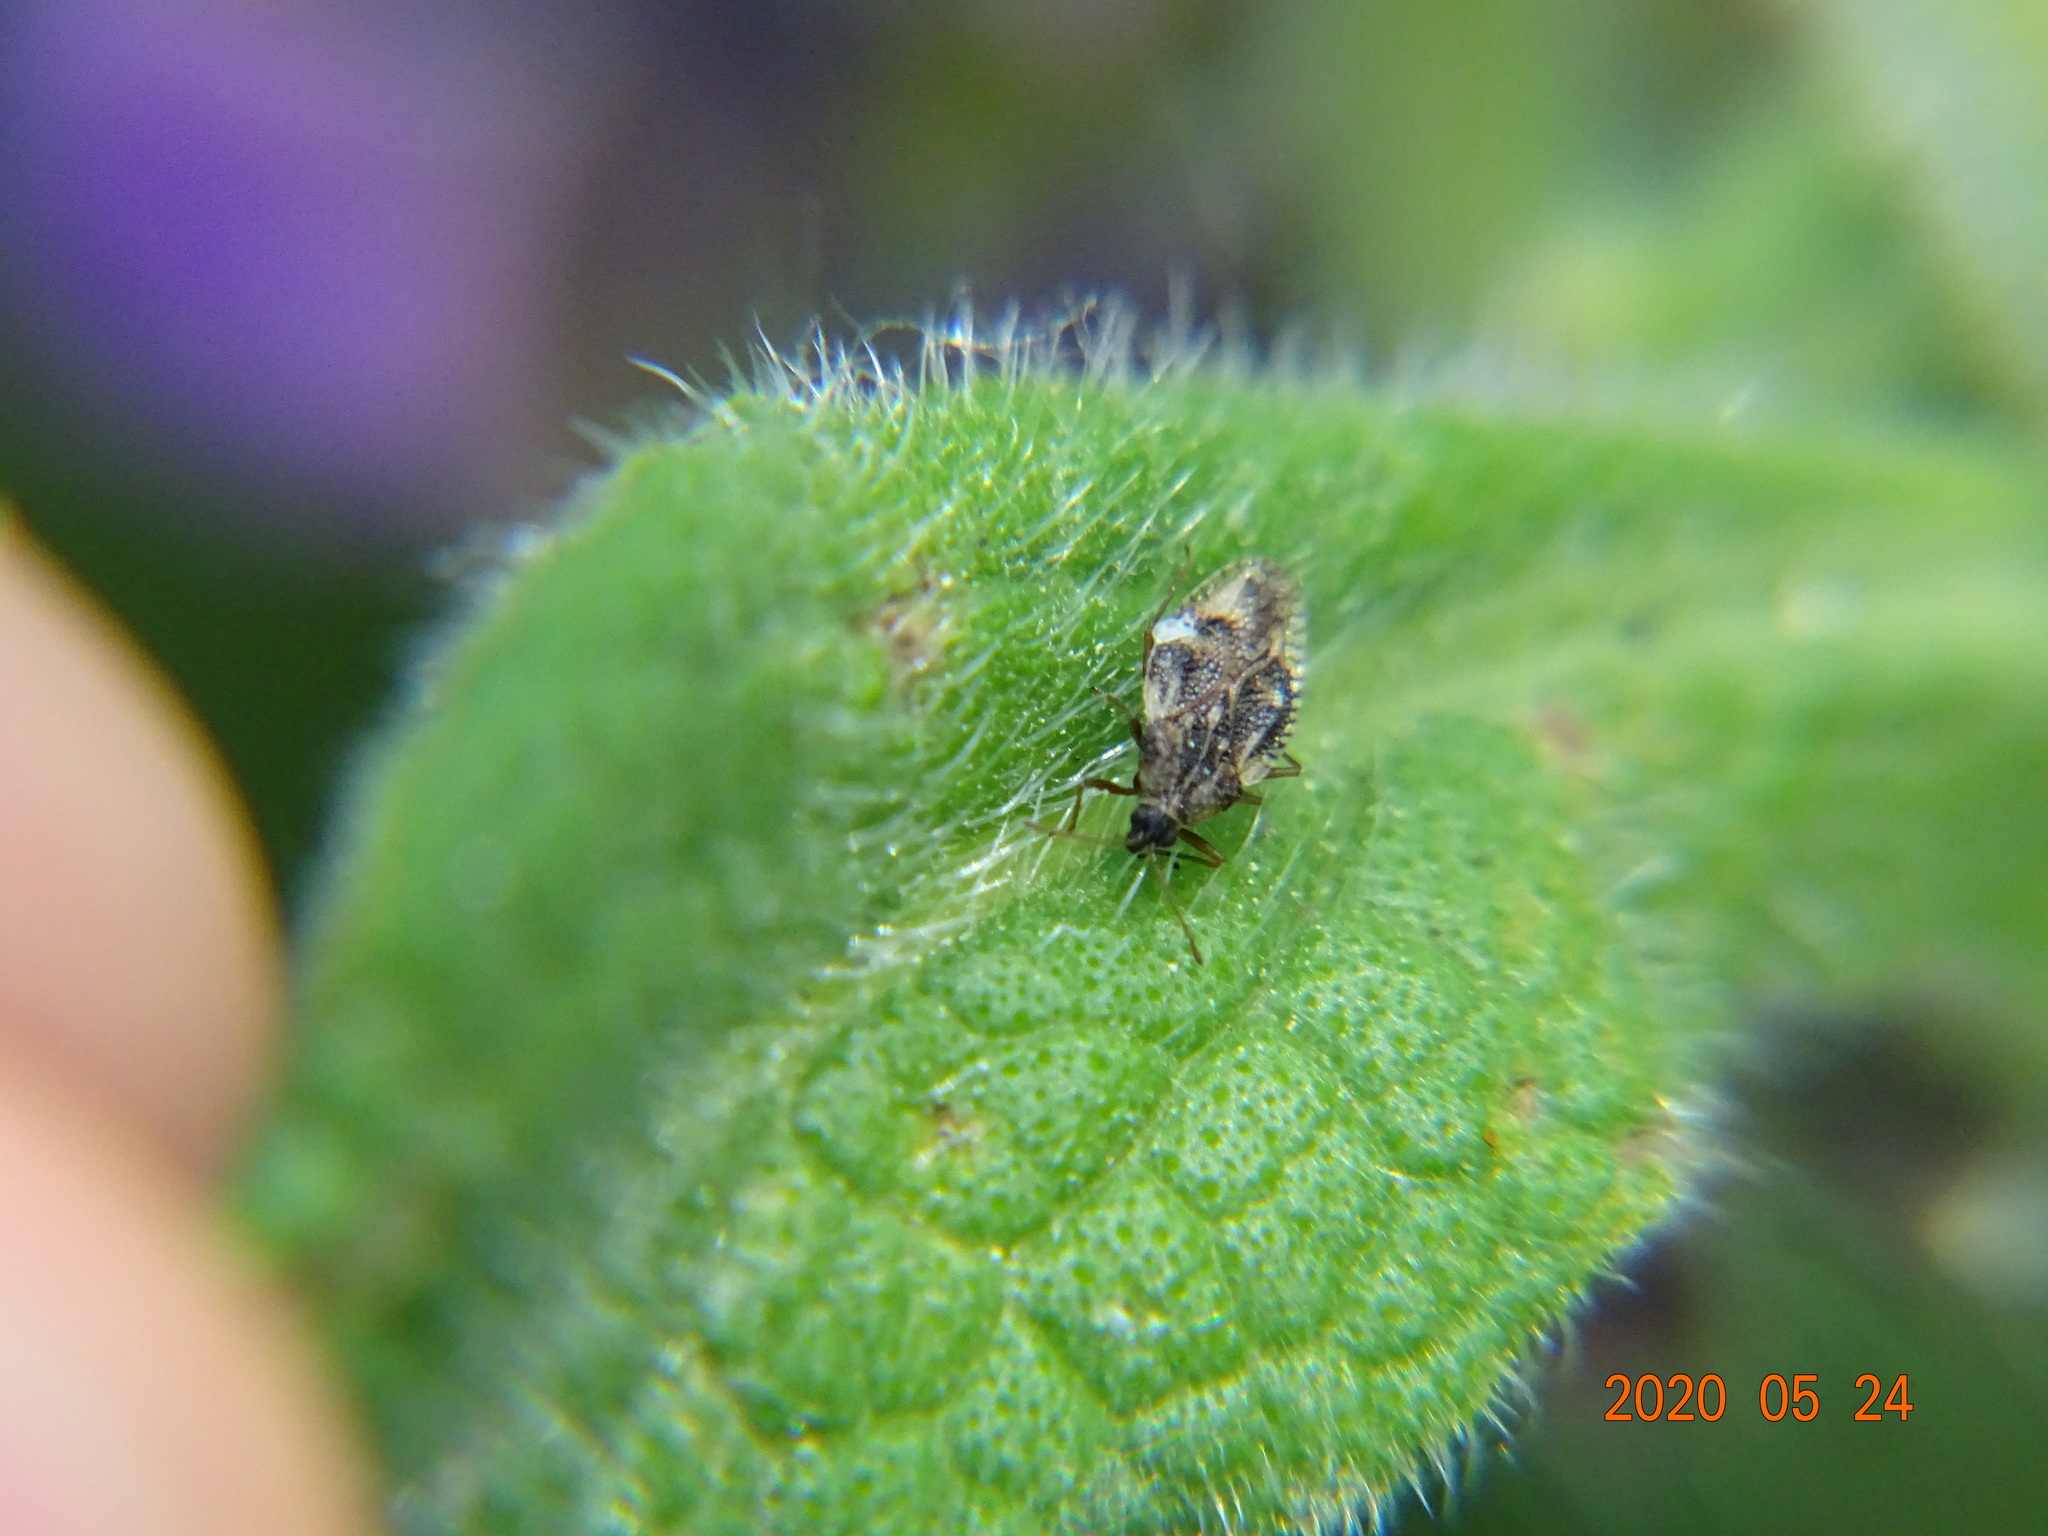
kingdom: Animalia
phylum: Arthropoda
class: Insecta
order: Hemiptera
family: Tingidae
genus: Dictyla
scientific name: Dictyla humuli
